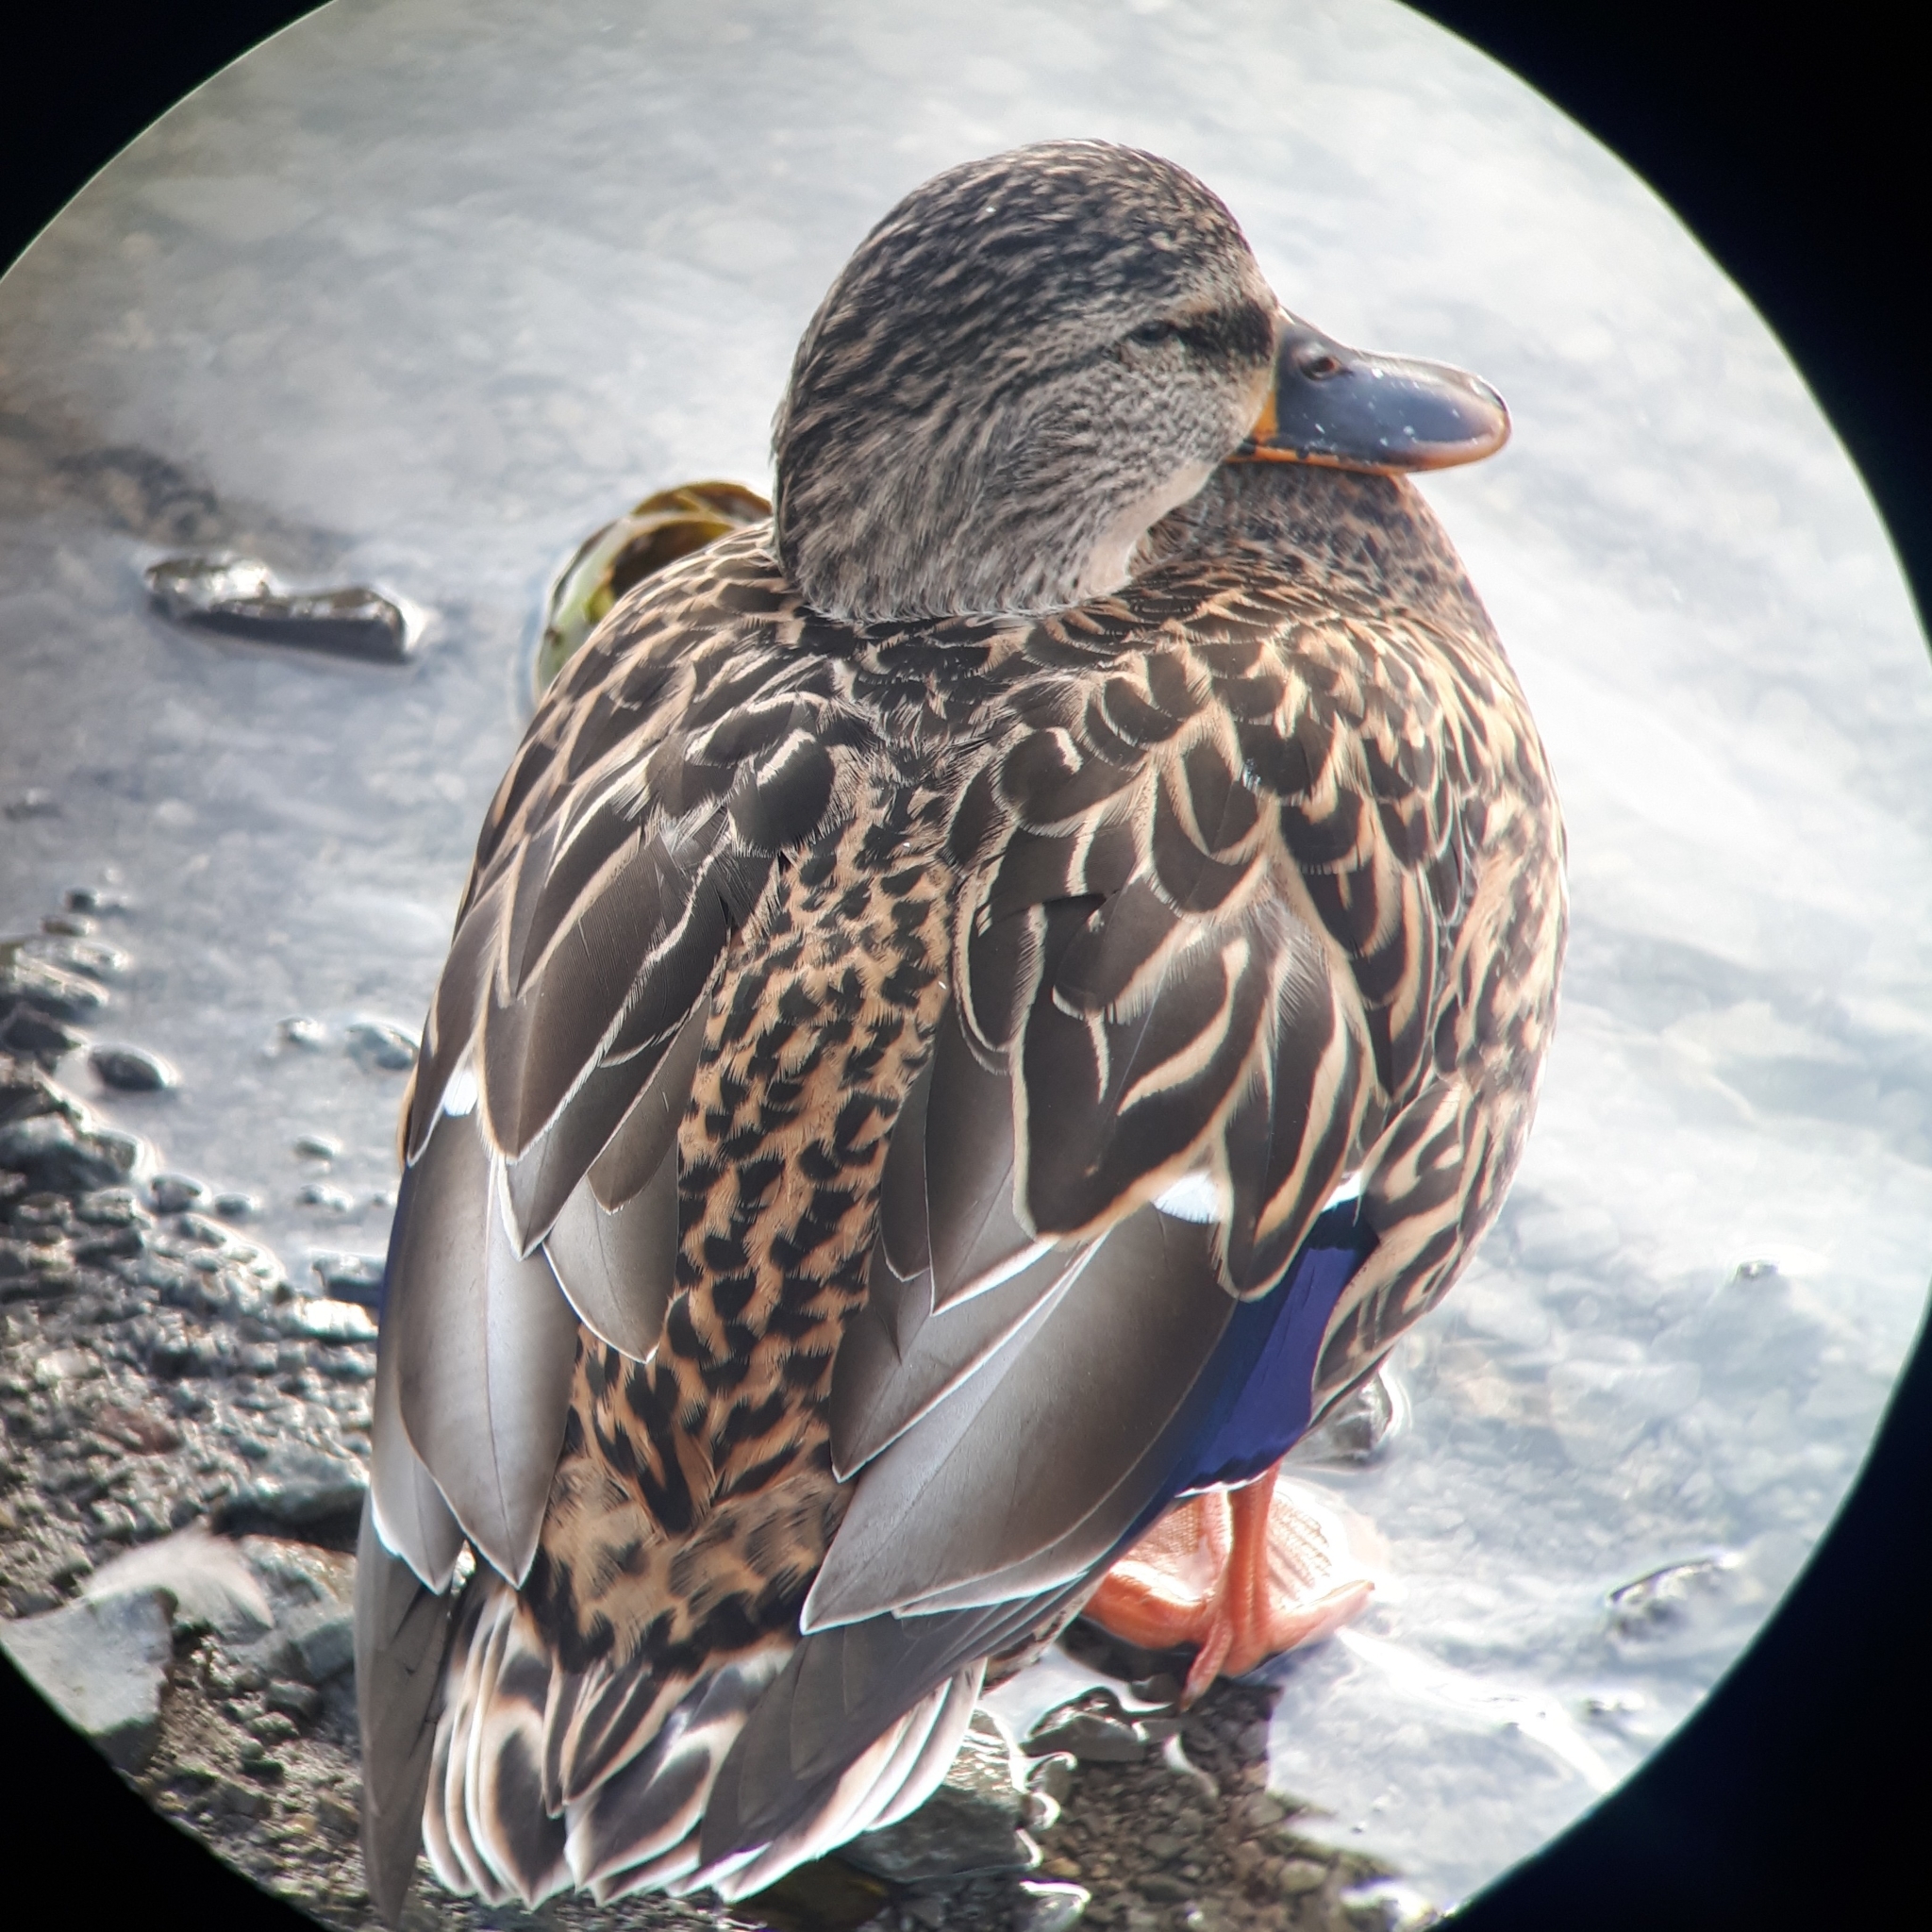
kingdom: Animalia
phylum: Chordata
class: Aves
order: Anseriformes
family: Anatidae
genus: Anas
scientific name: Anas platyrhynchos
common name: Mallard
